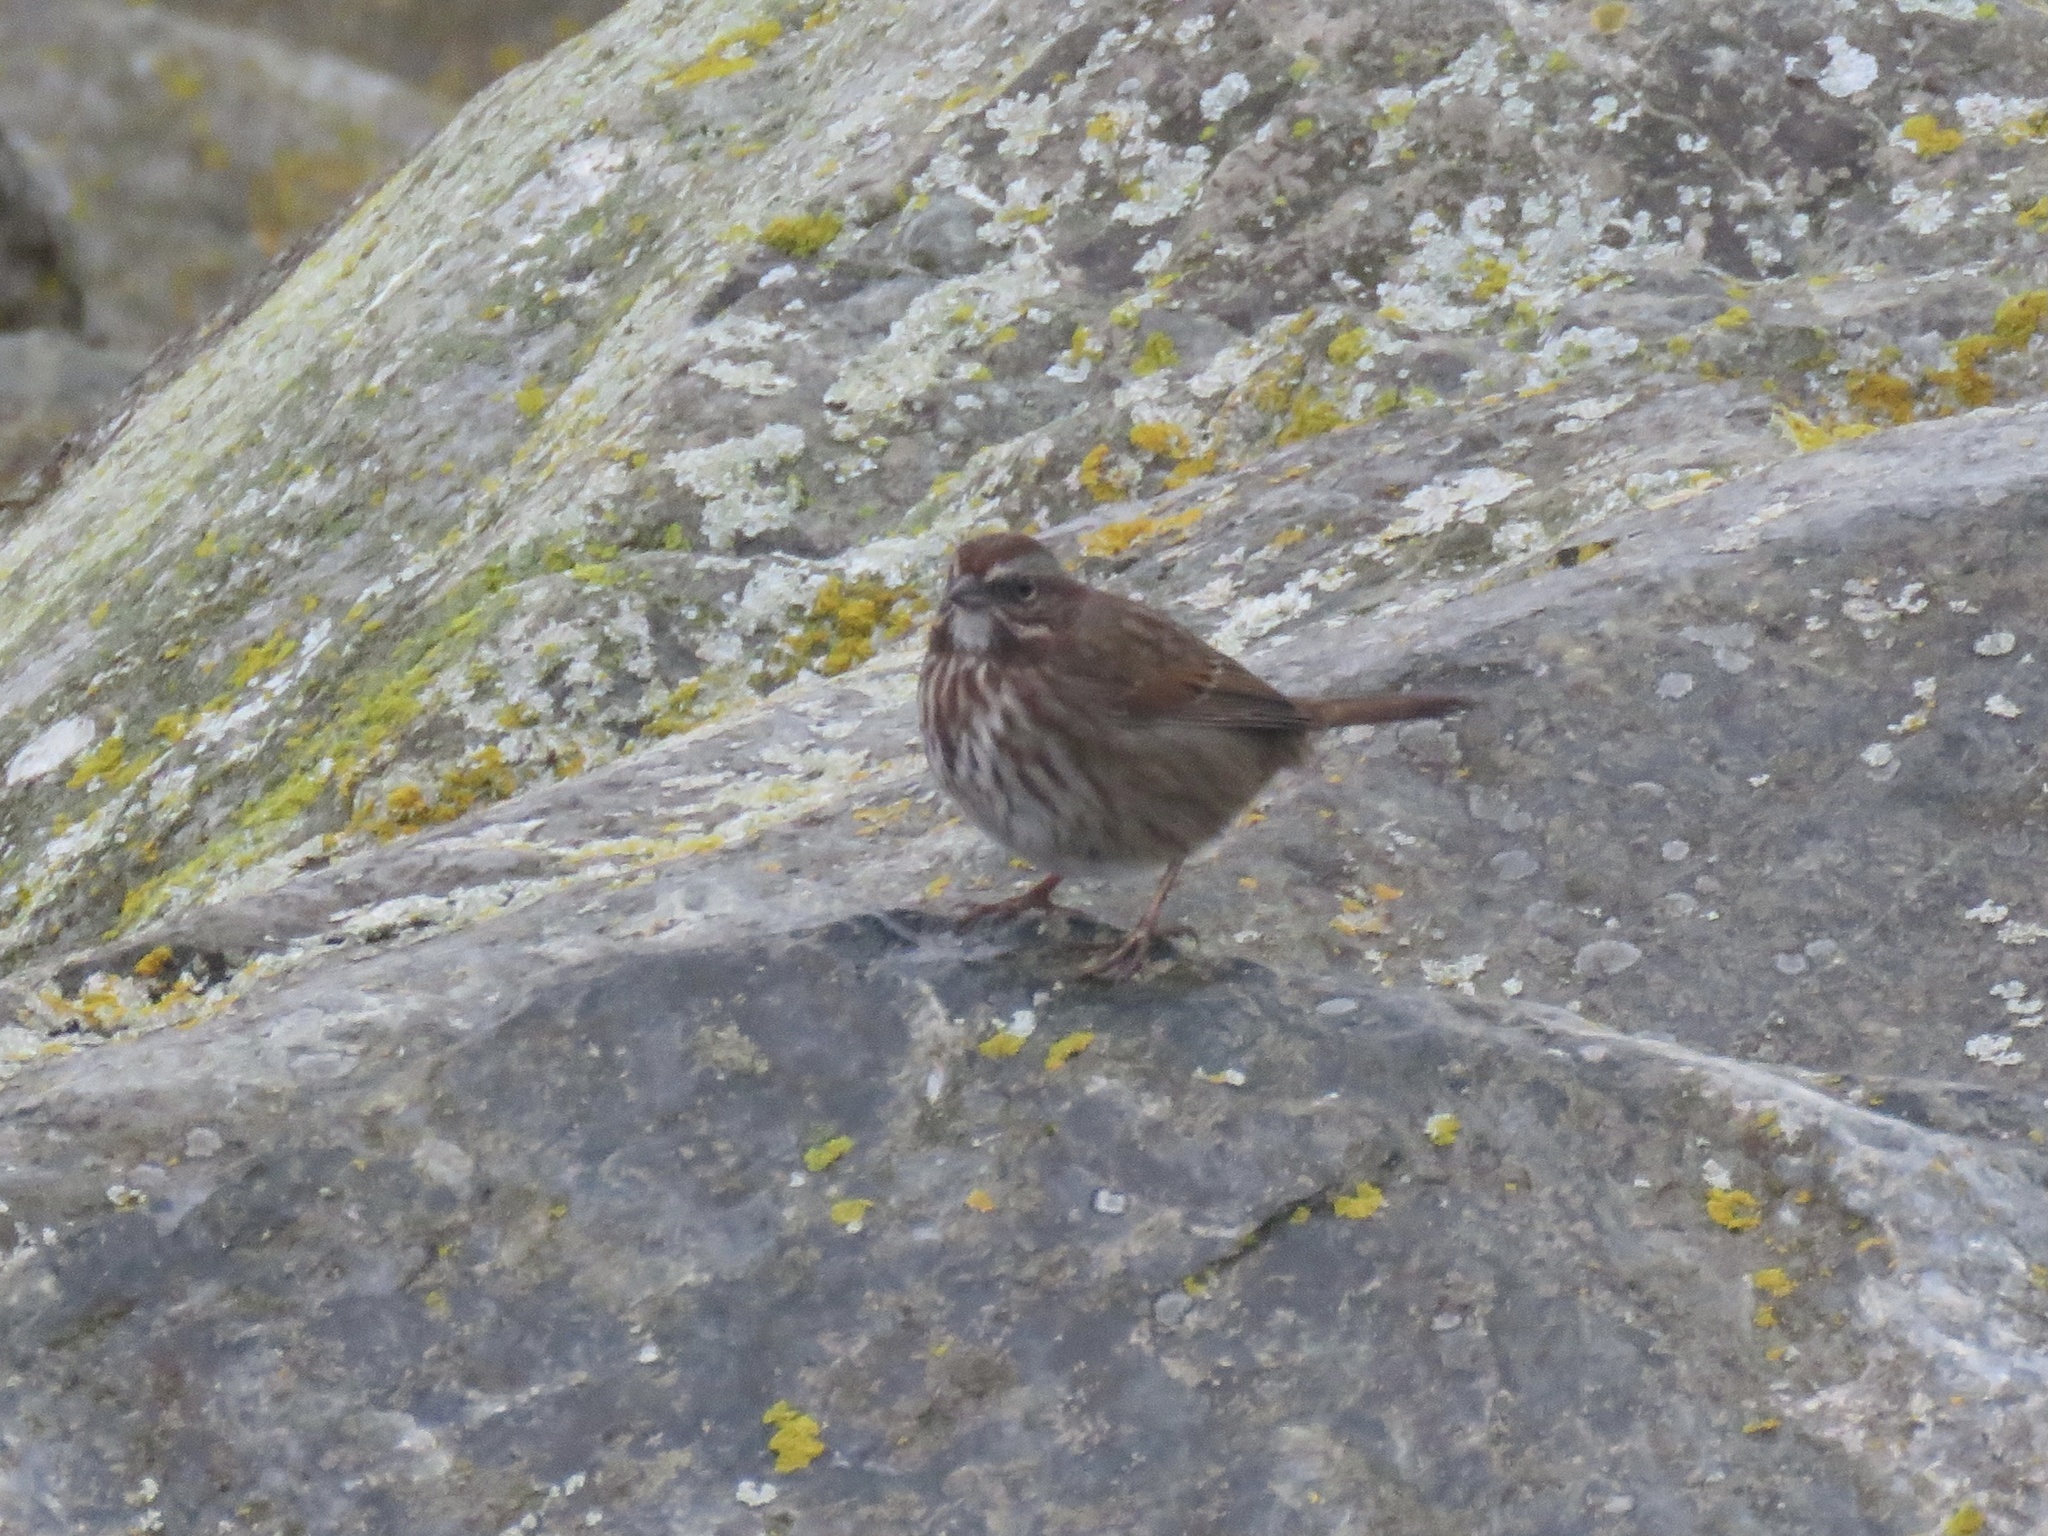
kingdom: Animalia
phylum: Chordata
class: Aves
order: Passeriformes
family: Passerellidae
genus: Melospiza
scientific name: Melospiza melodia
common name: Song sparrow
